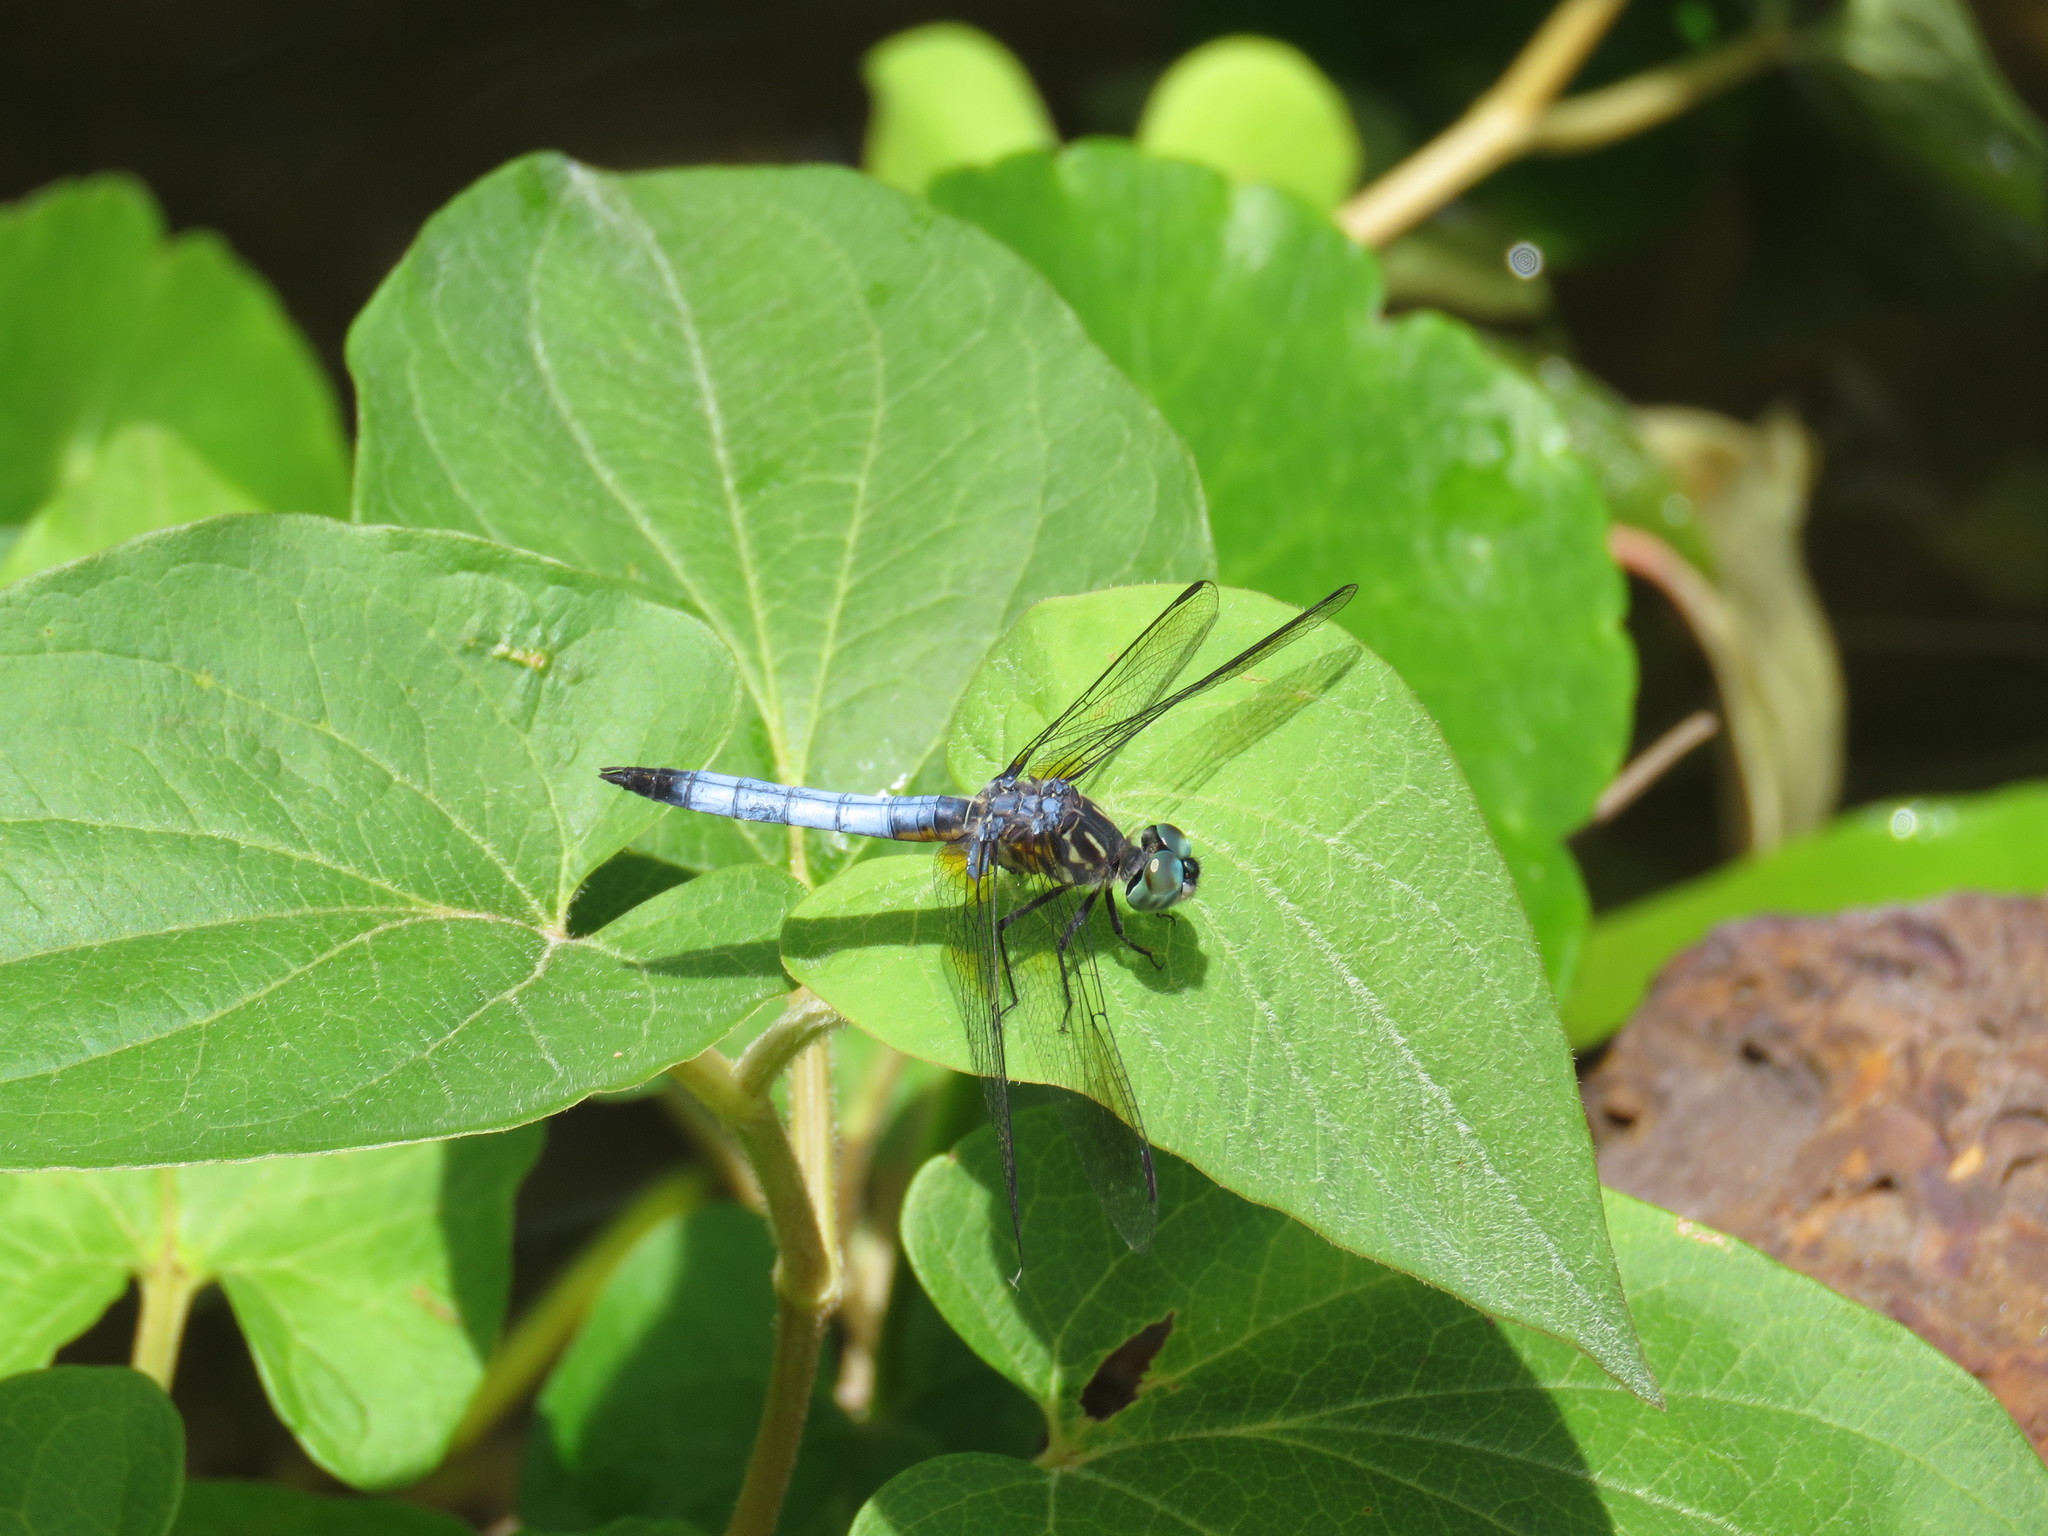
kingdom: Animalia
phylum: Arthropoda
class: Insecta
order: Odonata
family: Libellulidae
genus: Pachydiplax
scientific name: Pachydiplax longipennis
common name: Blue dasher
